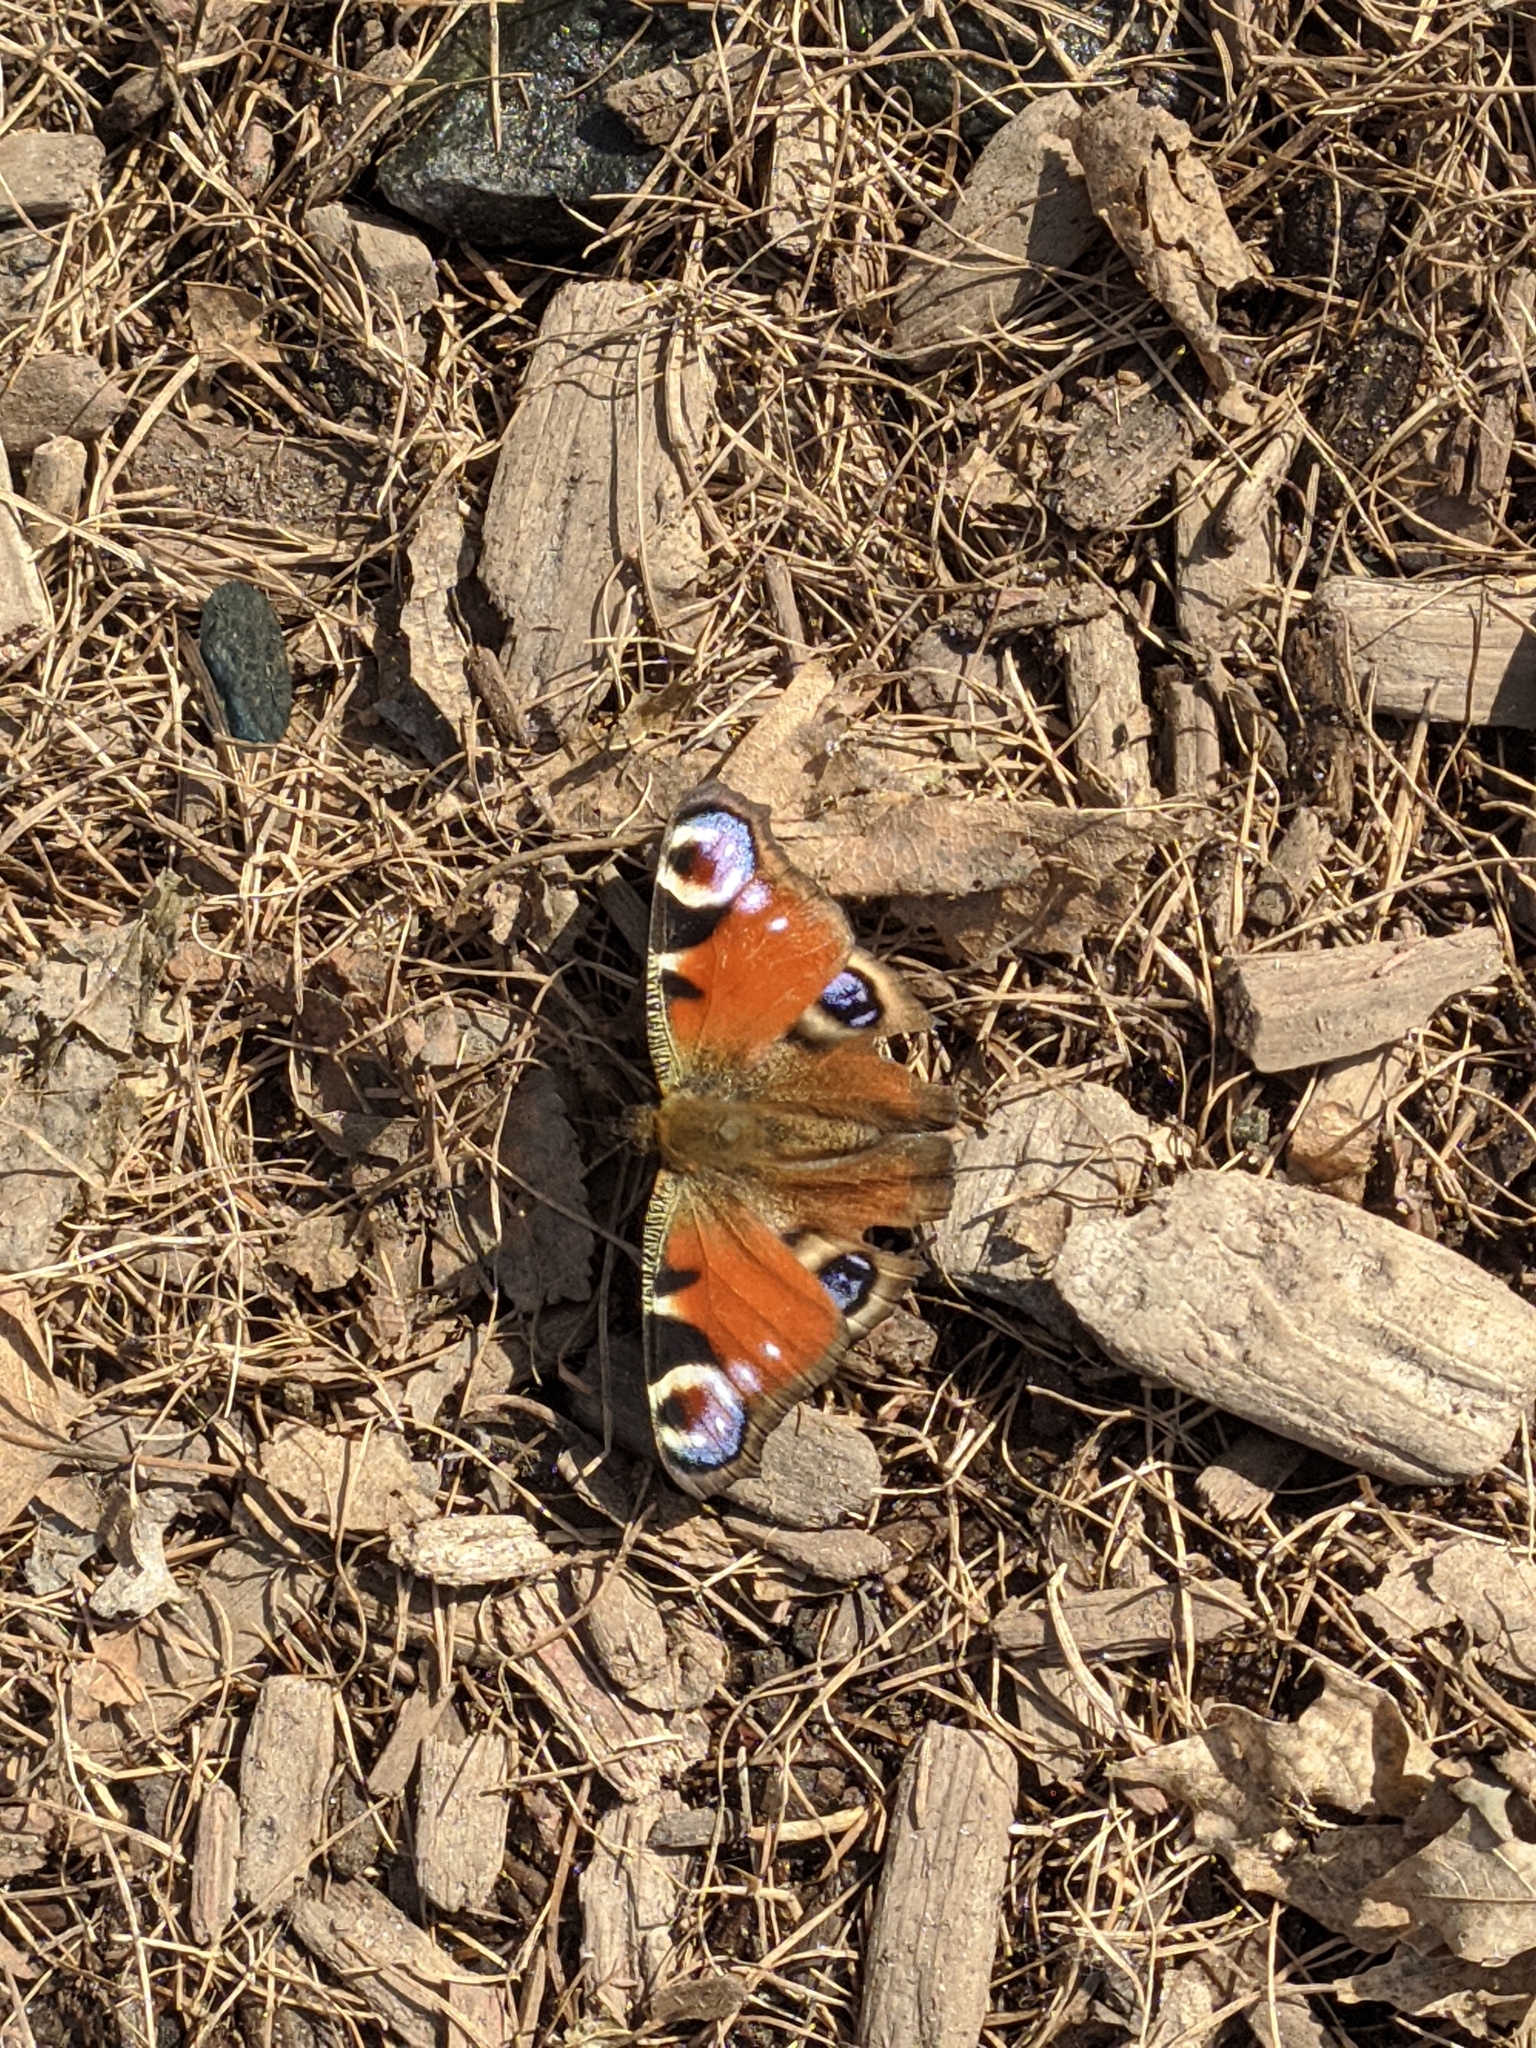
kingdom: Animalia
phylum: Arthropoda
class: Insecta
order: Lepidoptera
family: Nymphalidae
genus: Aglais
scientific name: Aglais io
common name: Peacock
